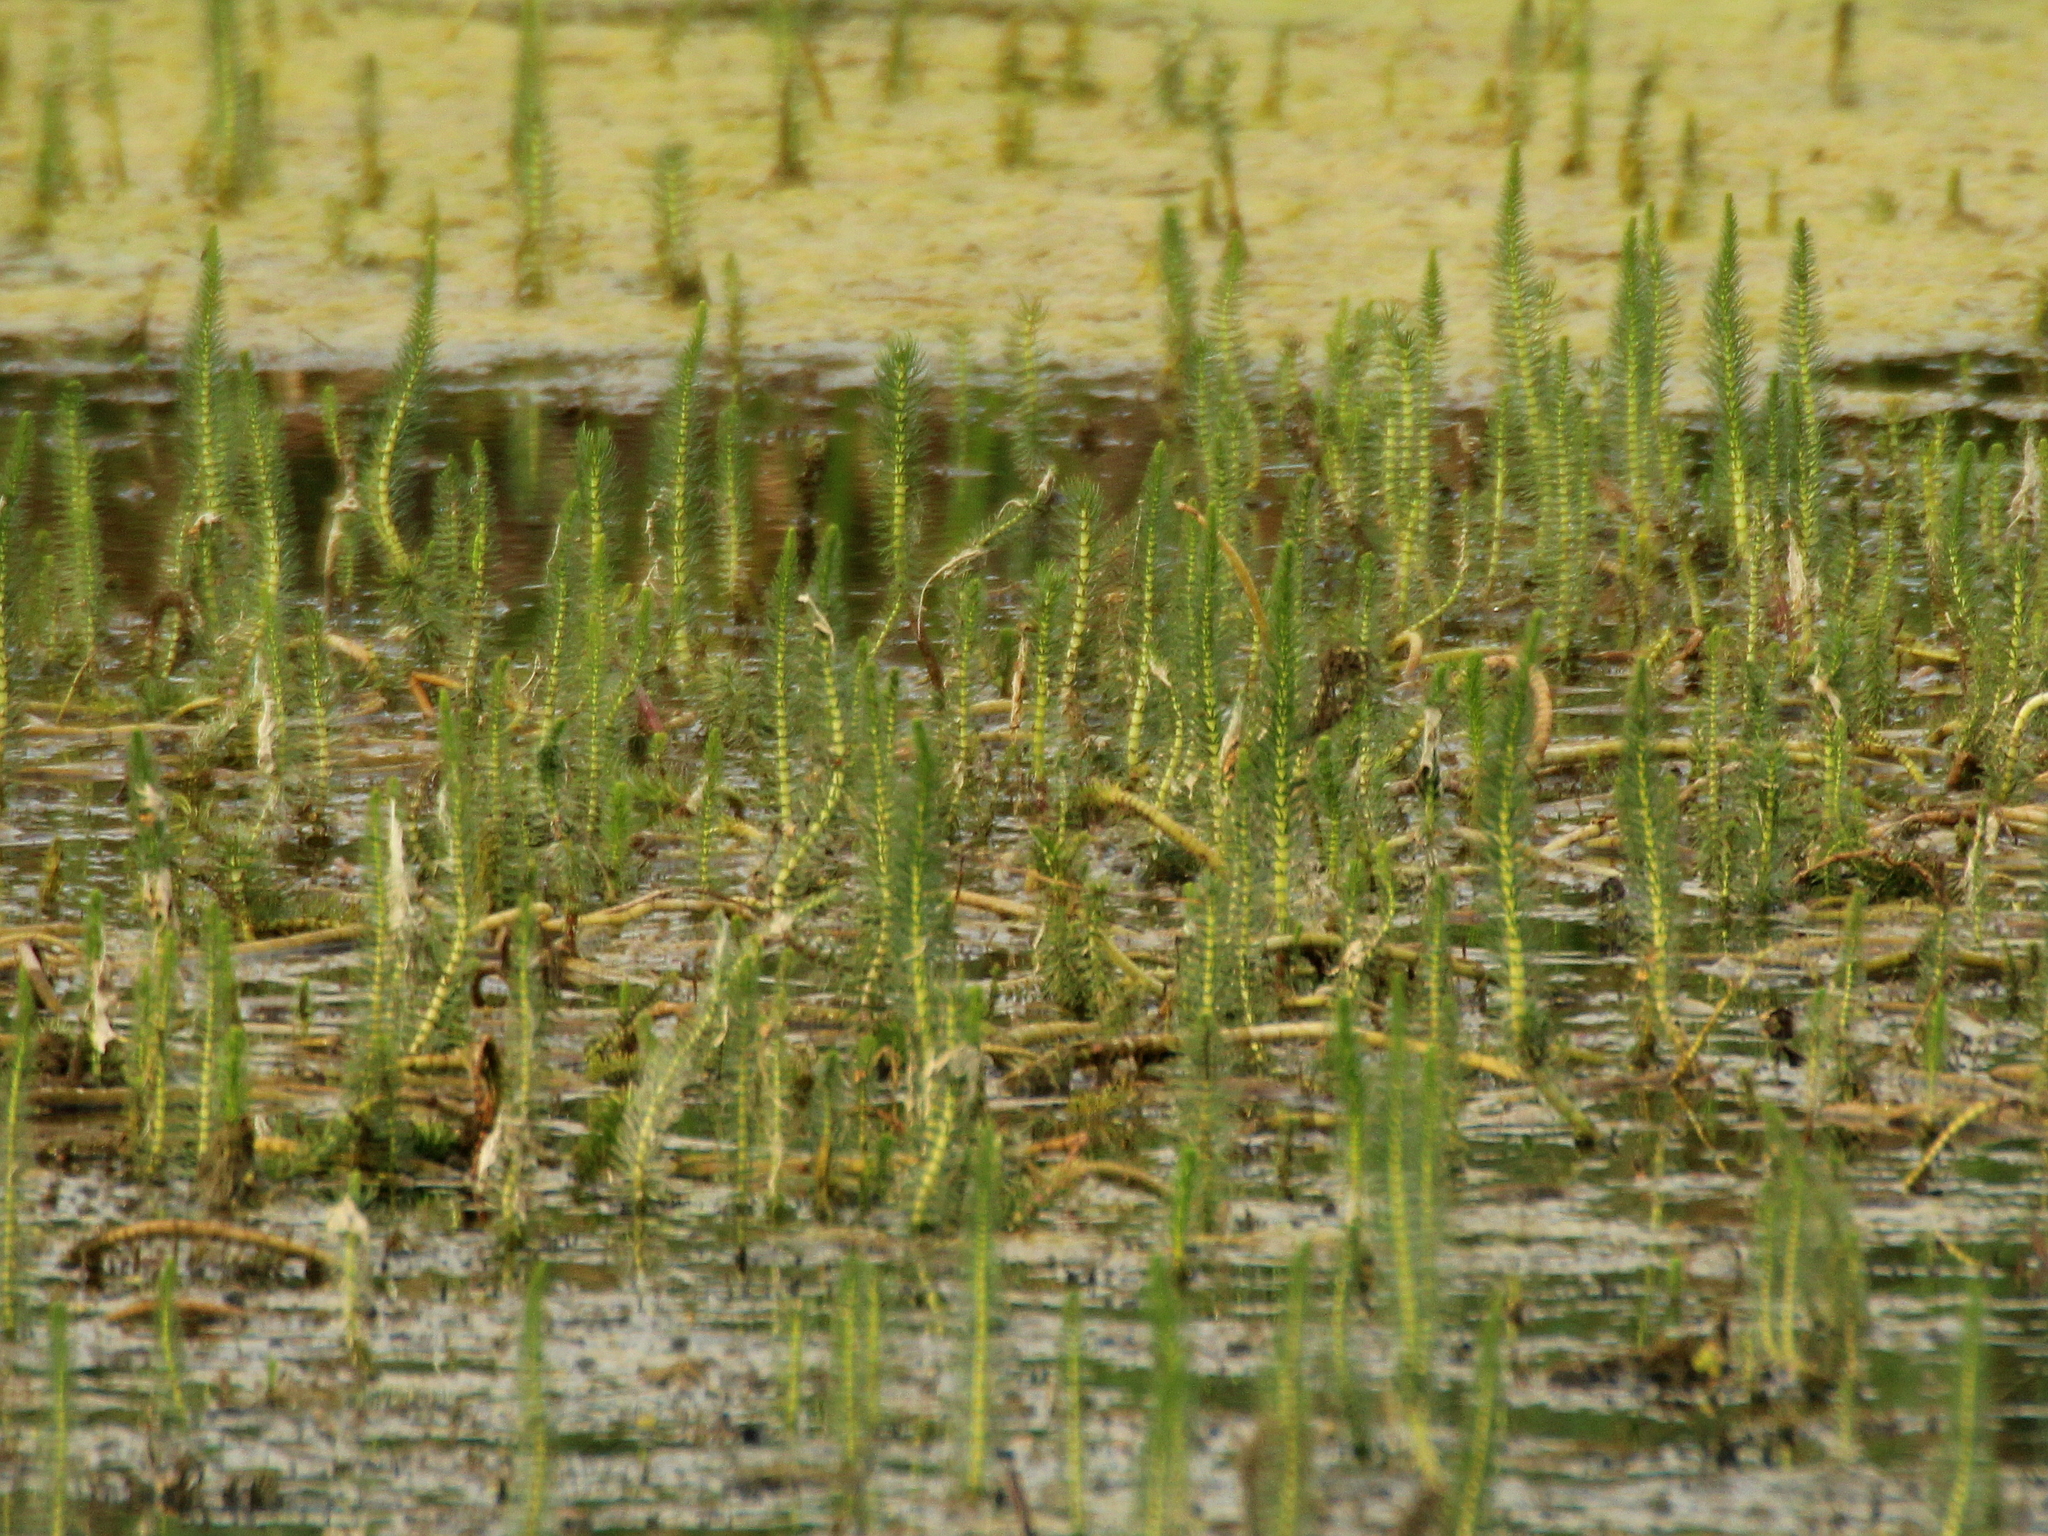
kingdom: Plantae
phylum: Tracheophyta
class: Magnoliopsida
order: Lamiales
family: Plantaginaceae
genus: Hippuris
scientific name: Hippuris vulgaris
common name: Mare's-tail
